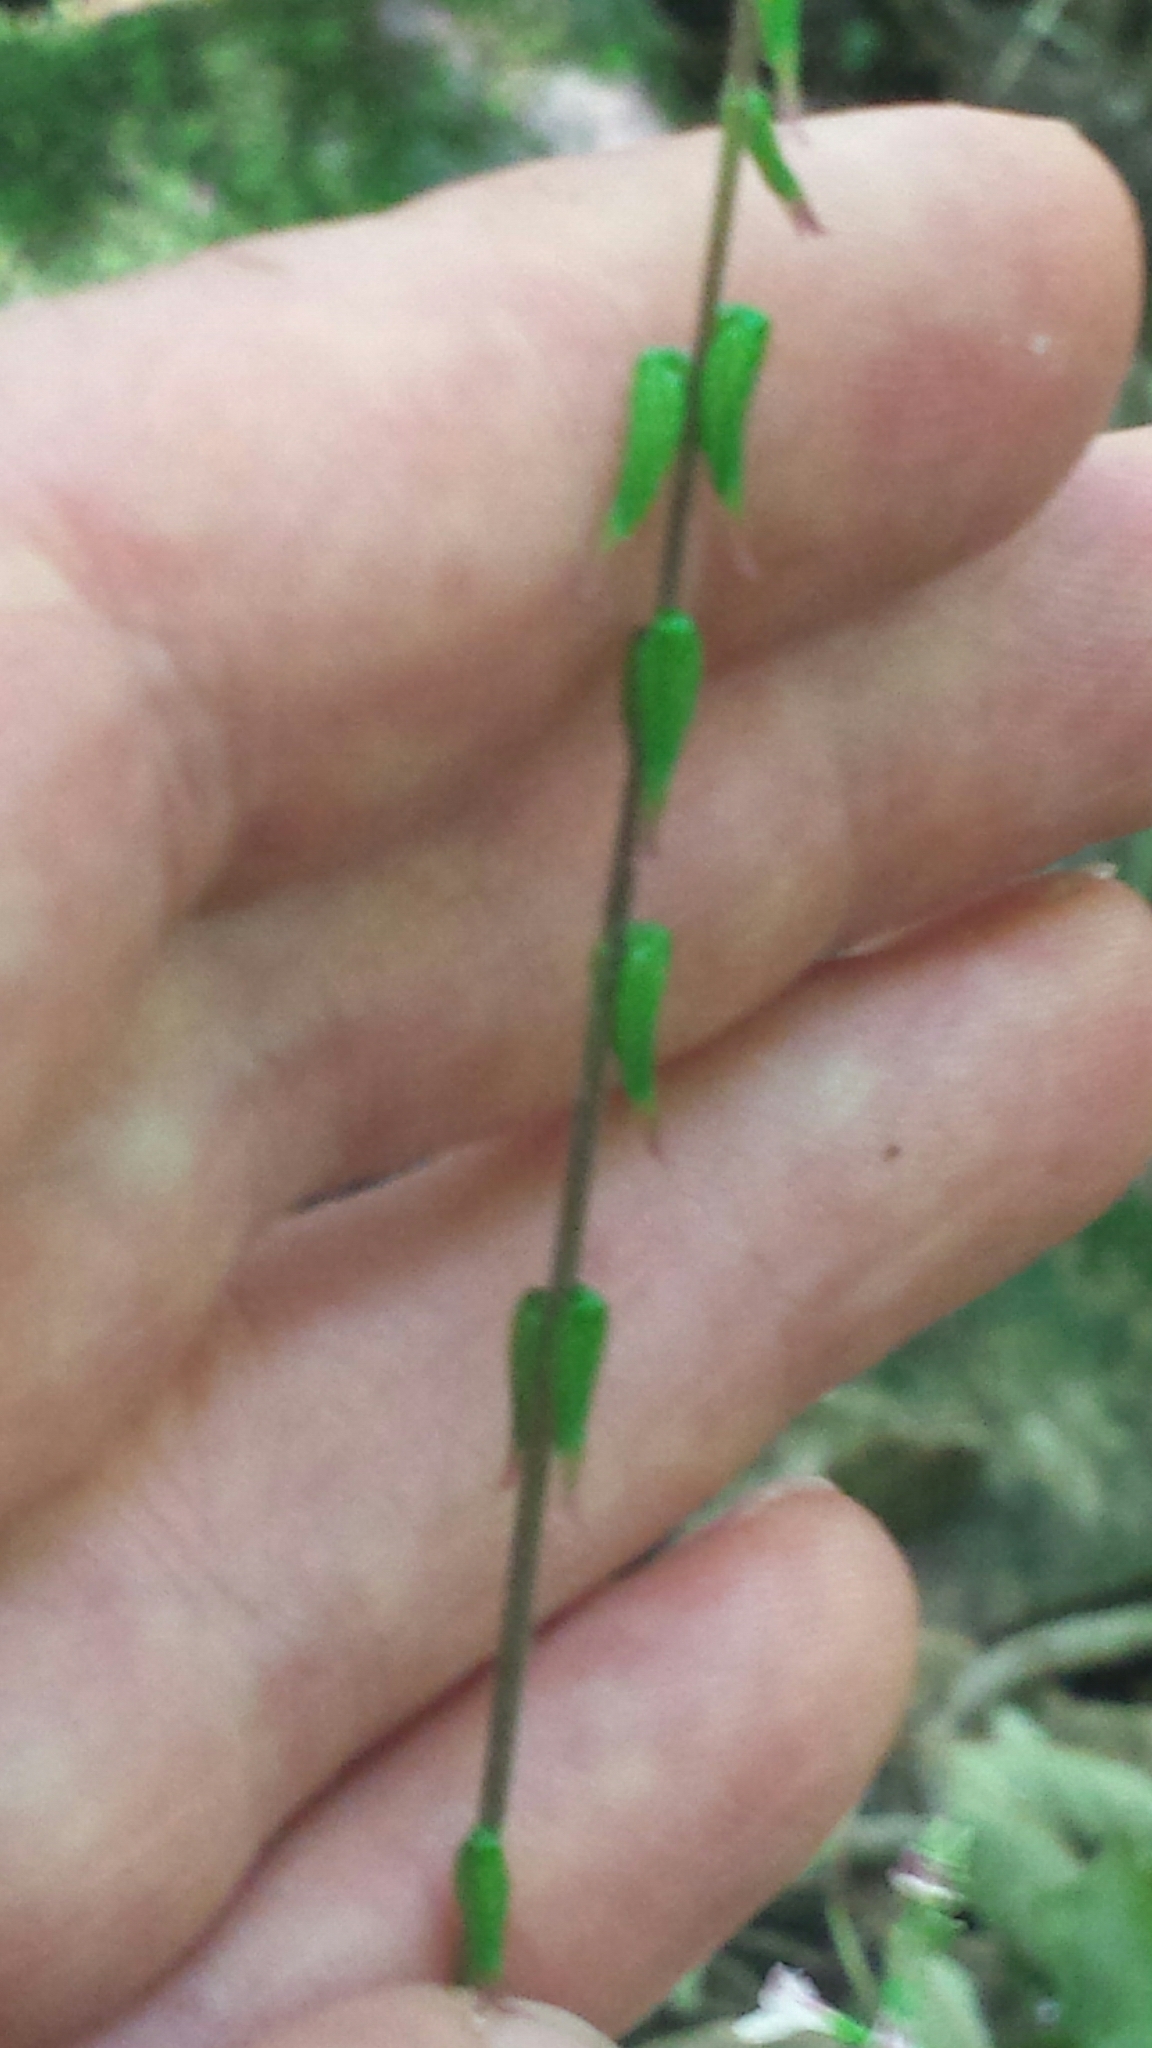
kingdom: Plantae
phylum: Tracheophyta
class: Magnoliopsida
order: Lamiales
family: Phrymaceae
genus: Phryma
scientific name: Phryma leptostachya
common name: American lopseed
